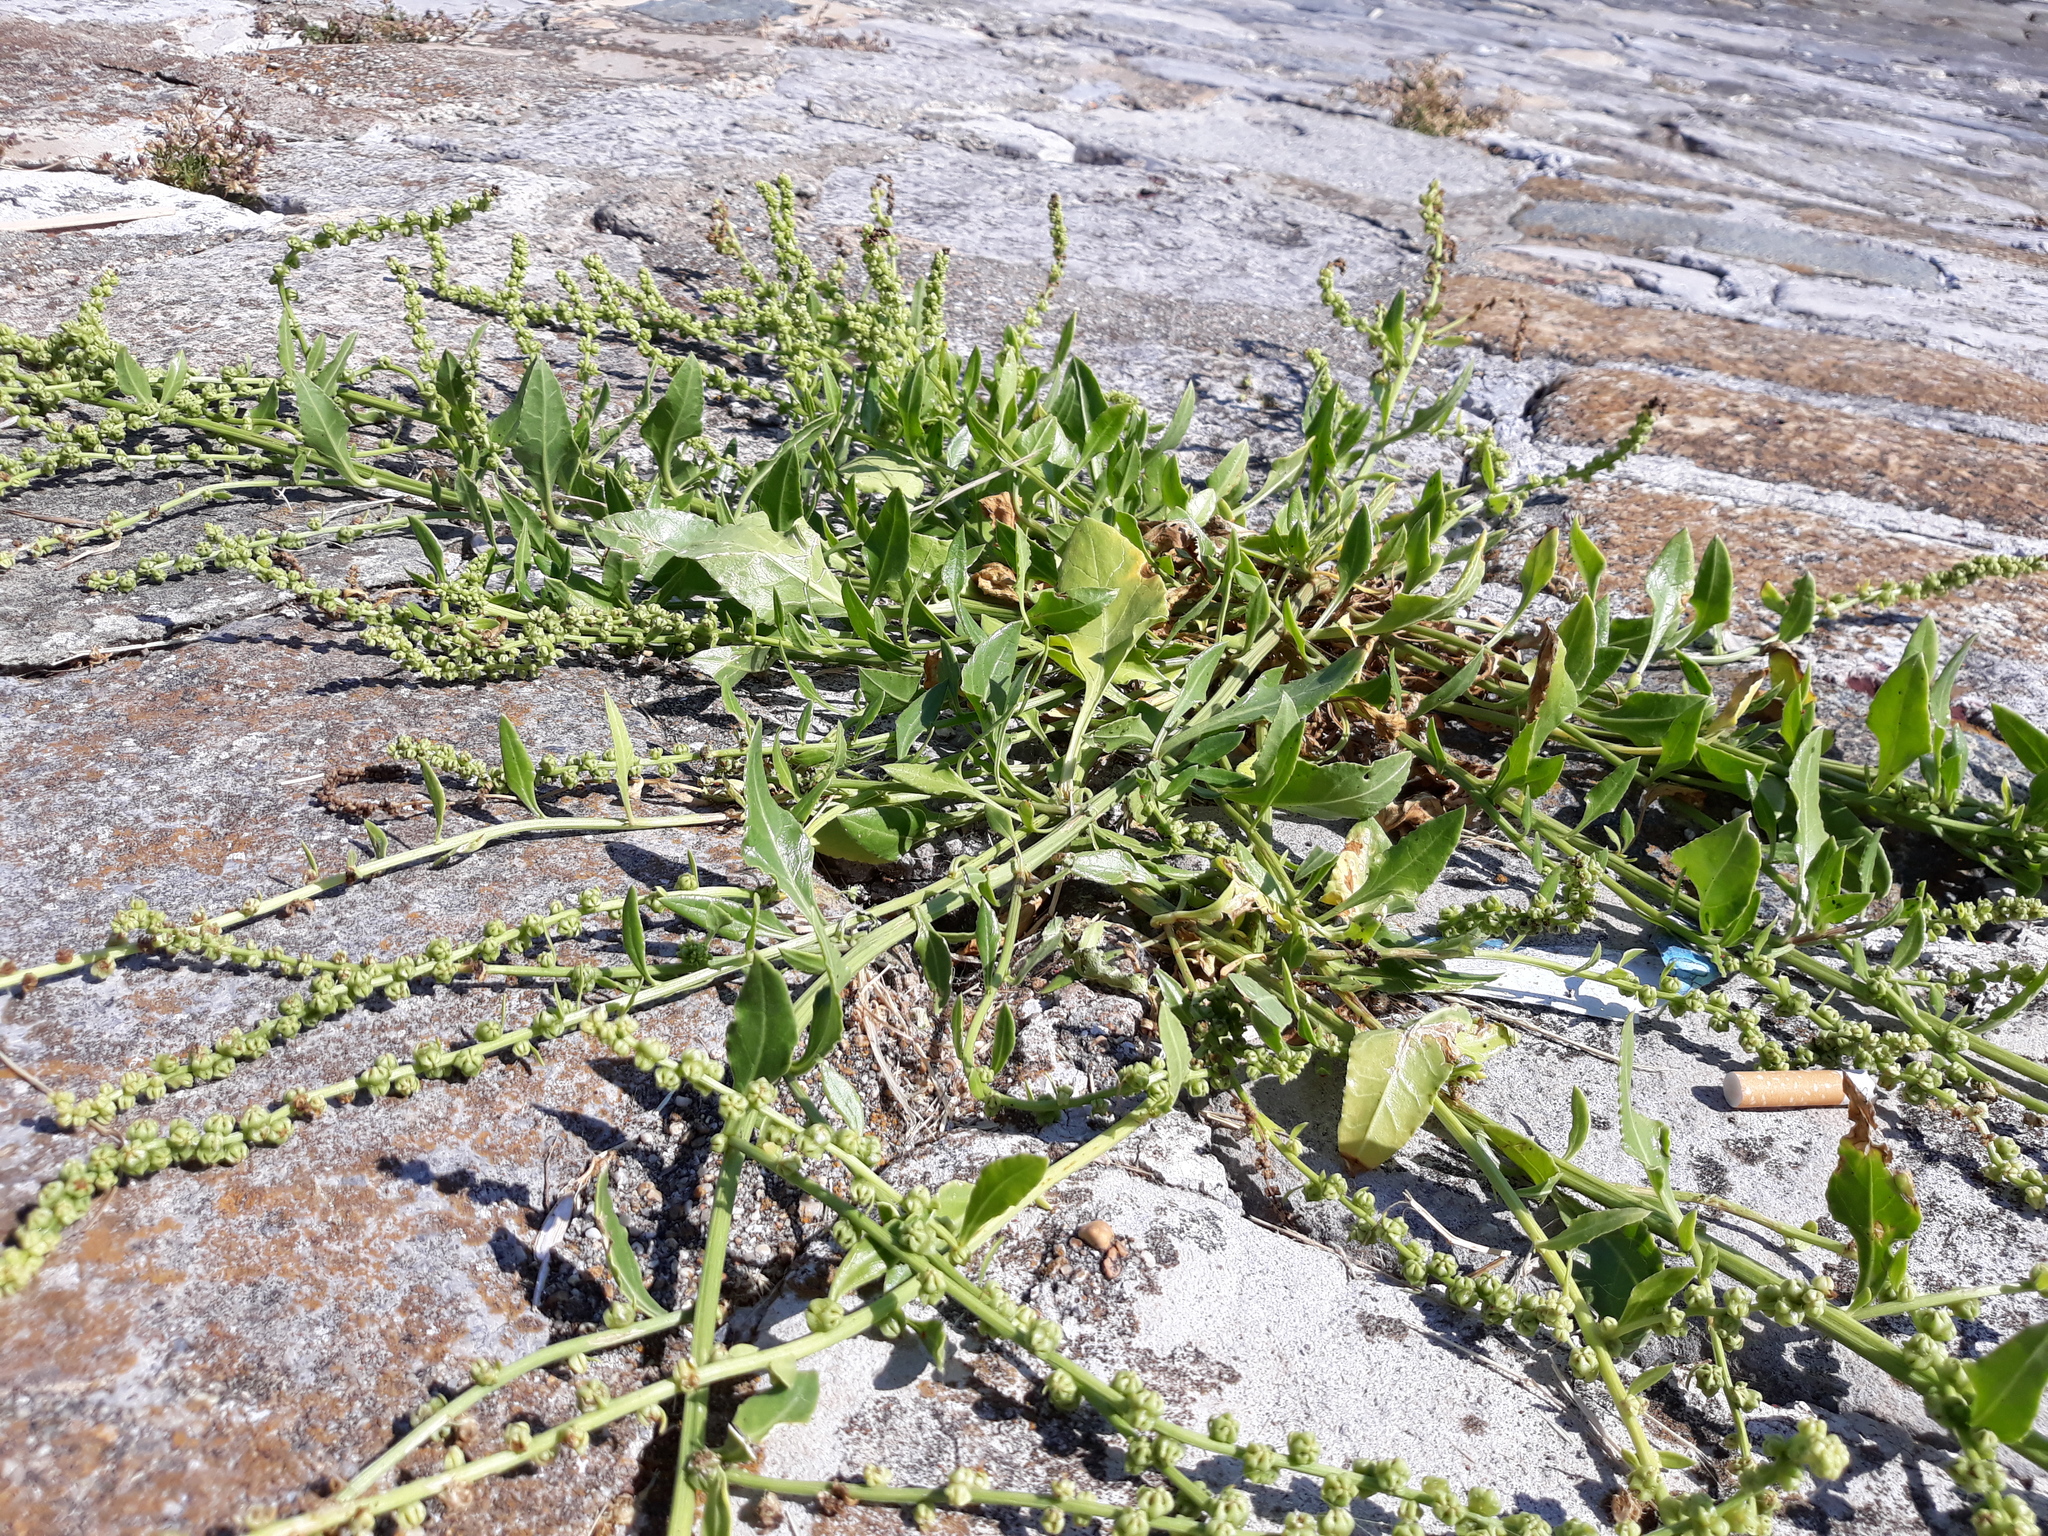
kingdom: Plantae
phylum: Tracheophyta
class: Magnoliopsida
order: Caryophyllales
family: Amaranthaceae
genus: Beta
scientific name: Beta vulgaris
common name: Beet
